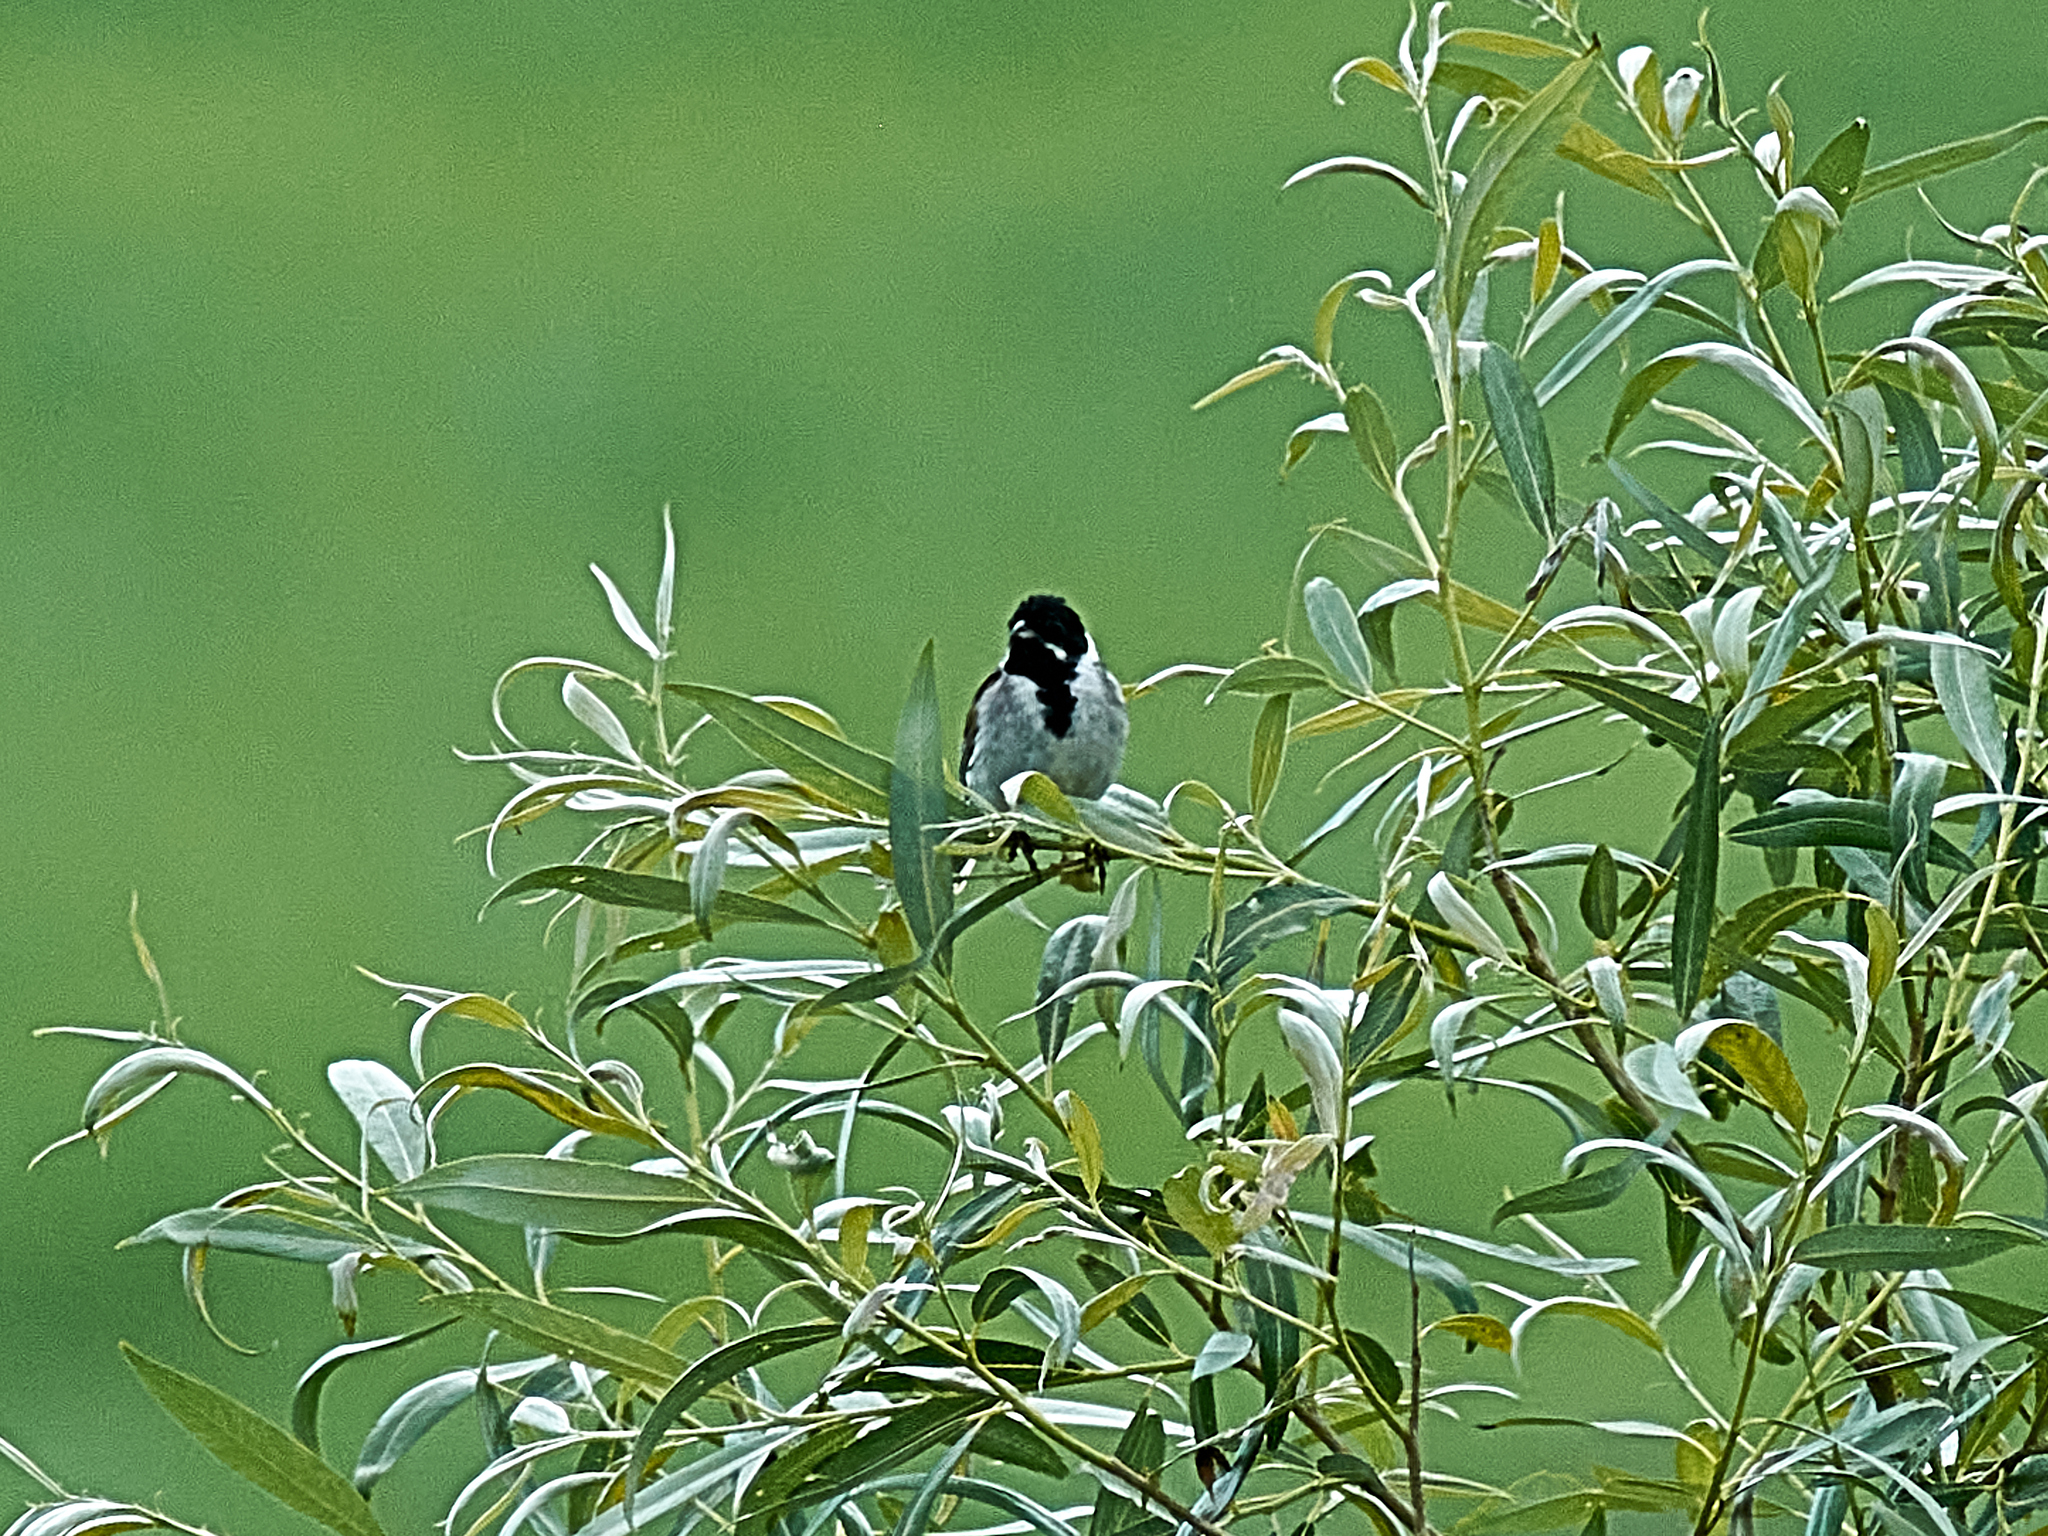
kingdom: Animalia
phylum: Chordata
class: Aves
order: Passeriformes
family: Emberizidae
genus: Emberiza
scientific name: Emberiza schoeniclus
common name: Reed bunting
